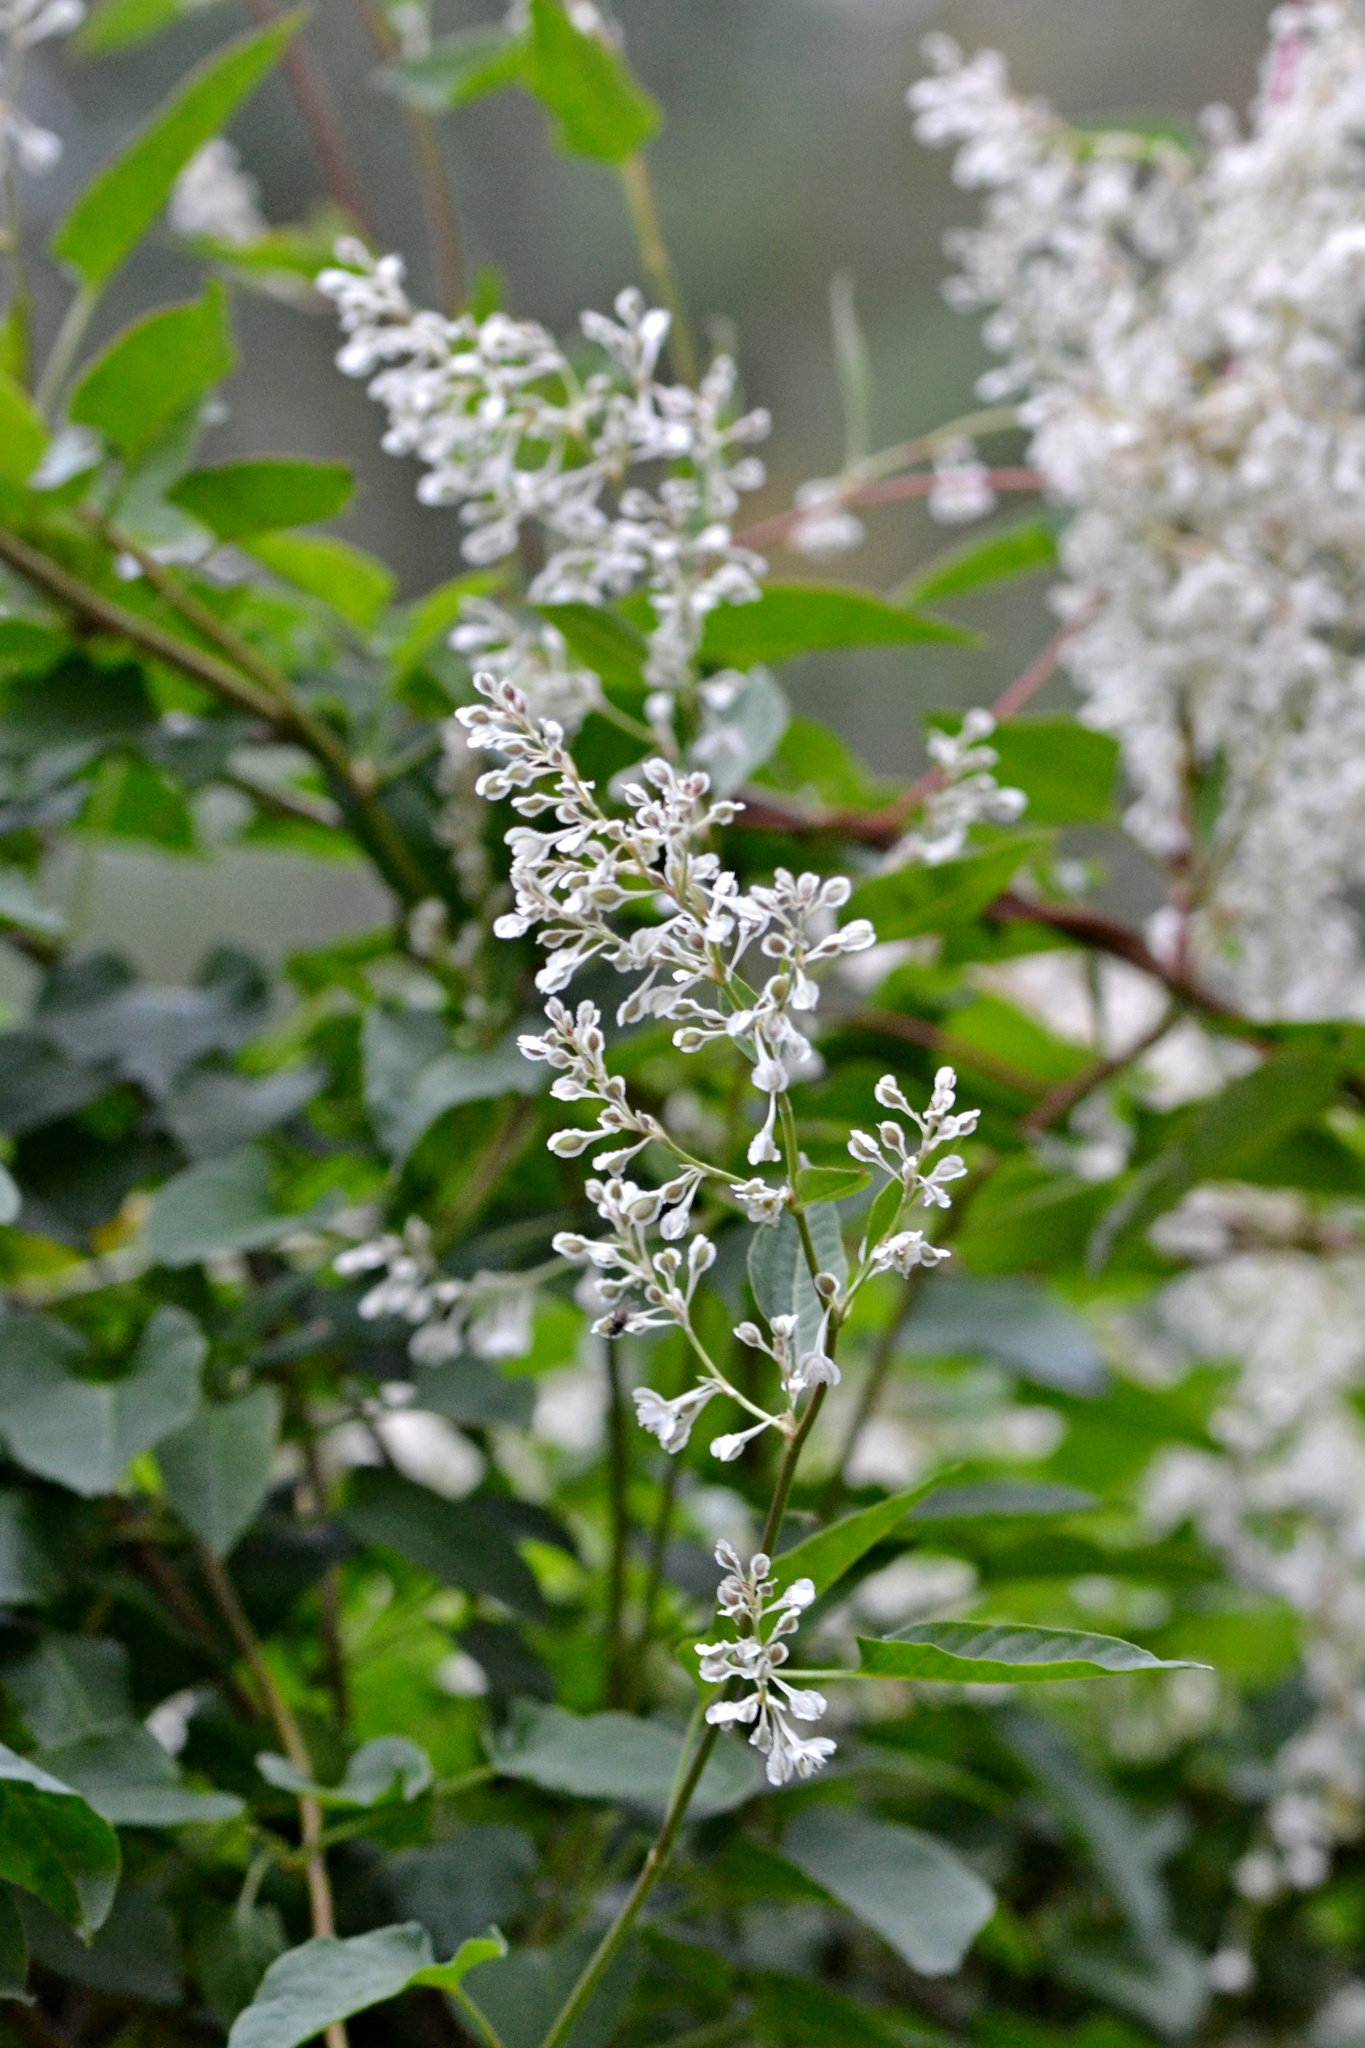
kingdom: Plantae
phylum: Tracheophyta
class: Magnoliopsida
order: Caryophyllales
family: Polygonaceae
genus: Fallopia
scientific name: Fallopia baldschuanica
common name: Russian-vine
